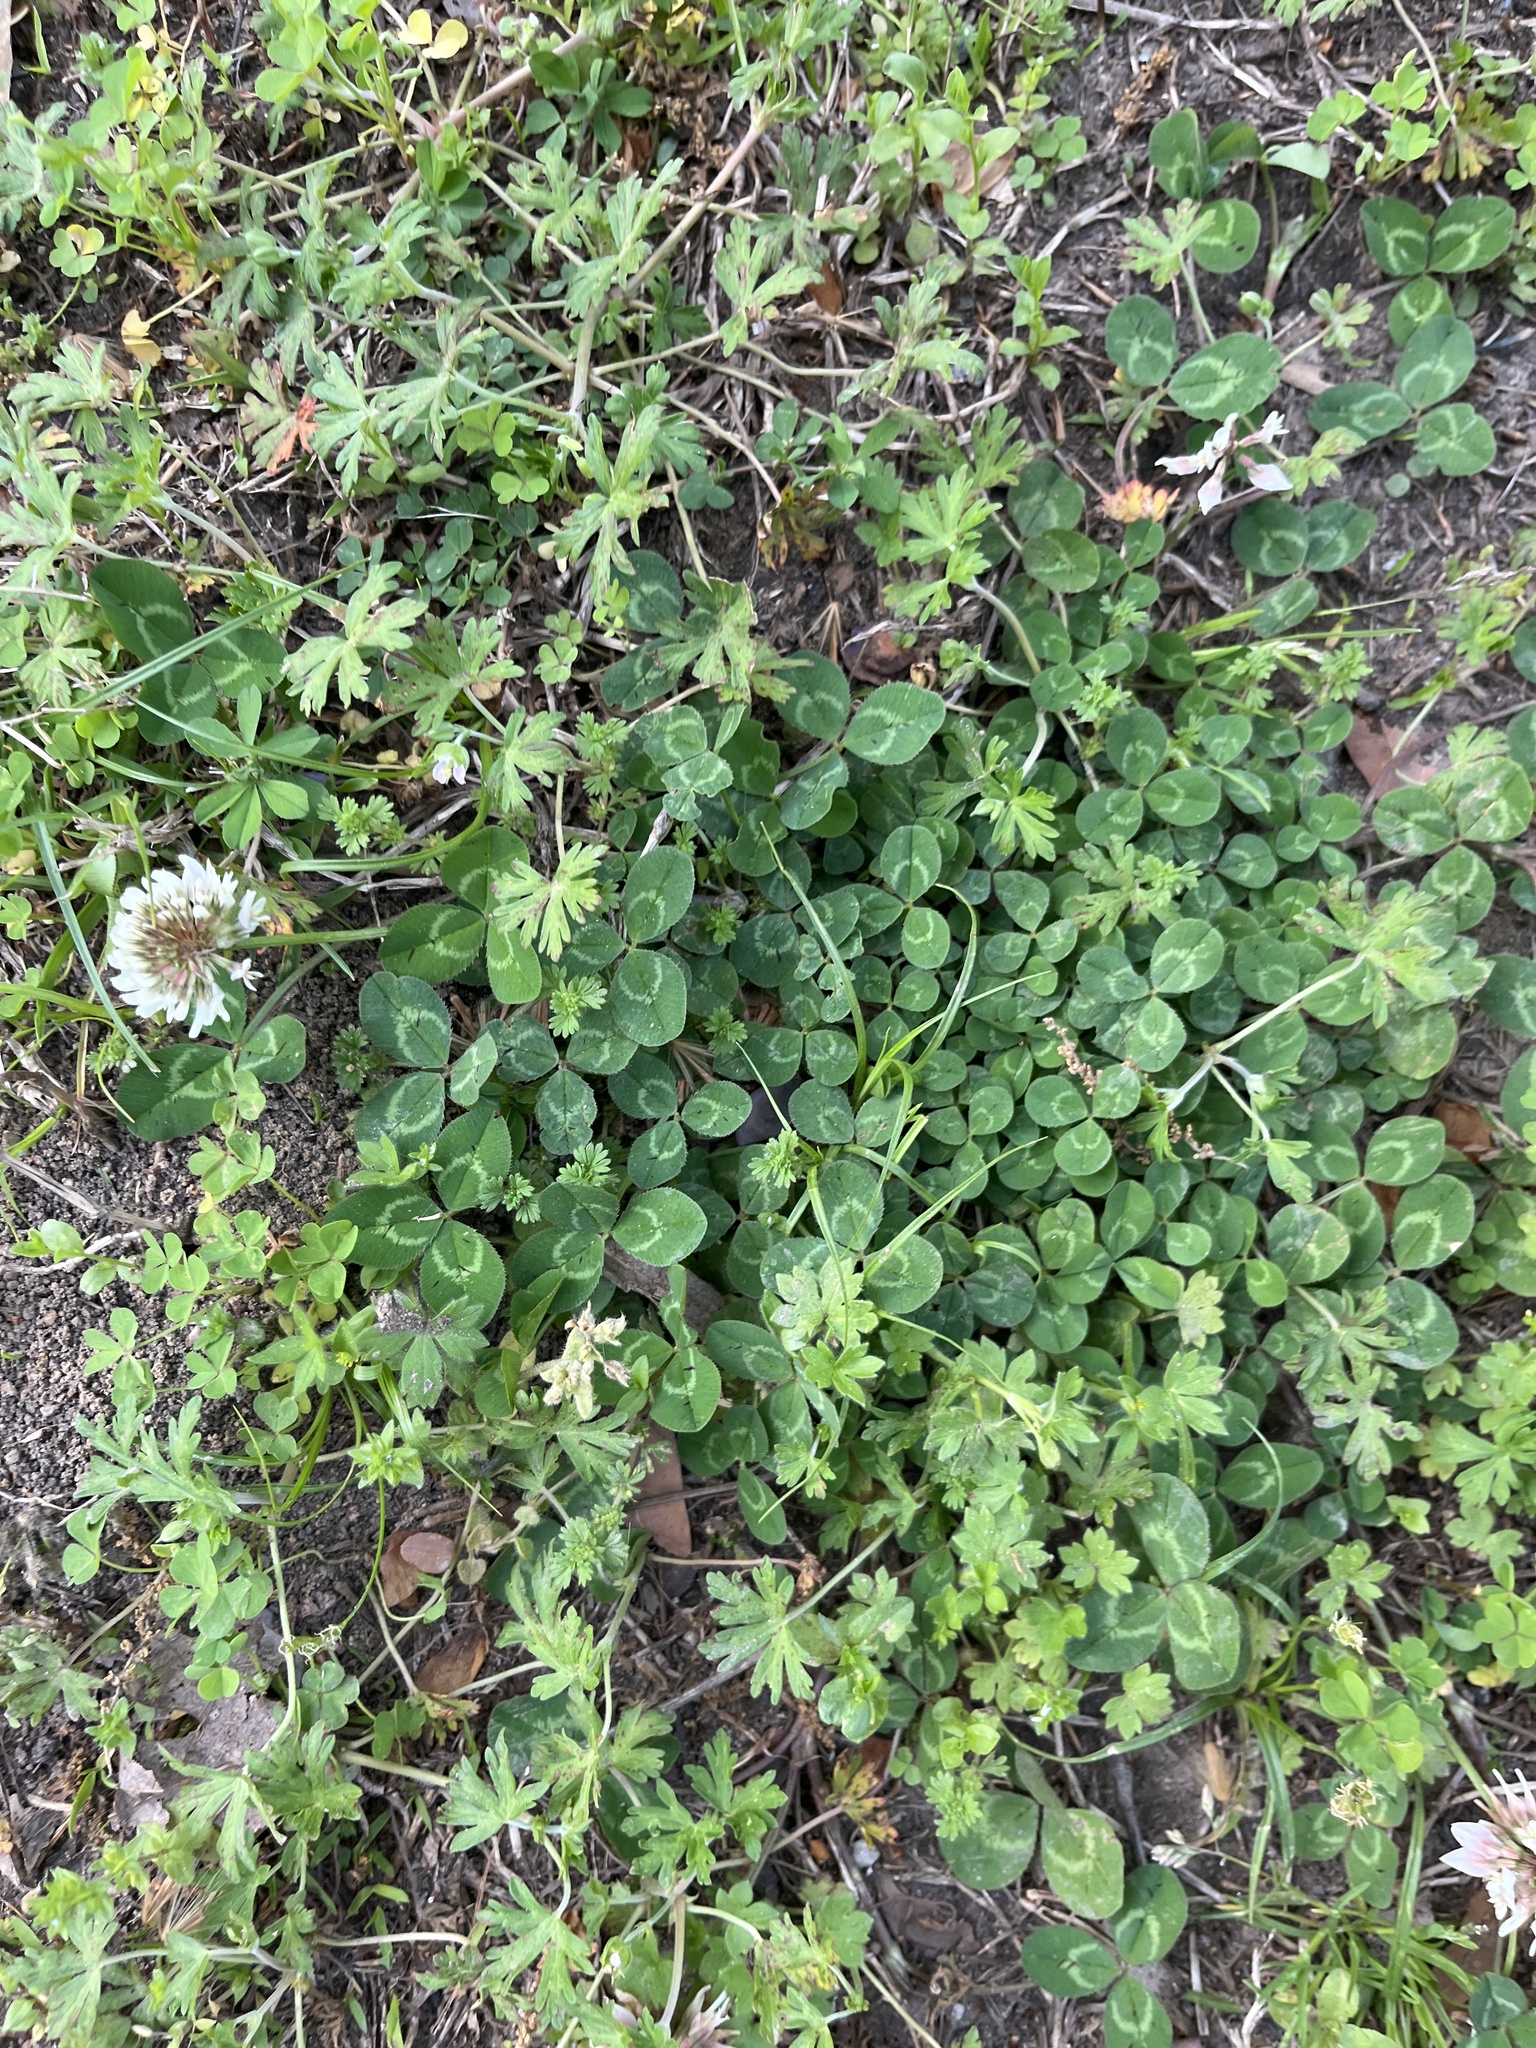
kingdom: Plantae
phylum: Tracheophyta
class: Magnoliopsida
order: Fabales
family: Fabaceae
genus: Trifolium
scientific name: Trifolium repens
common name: White clover
